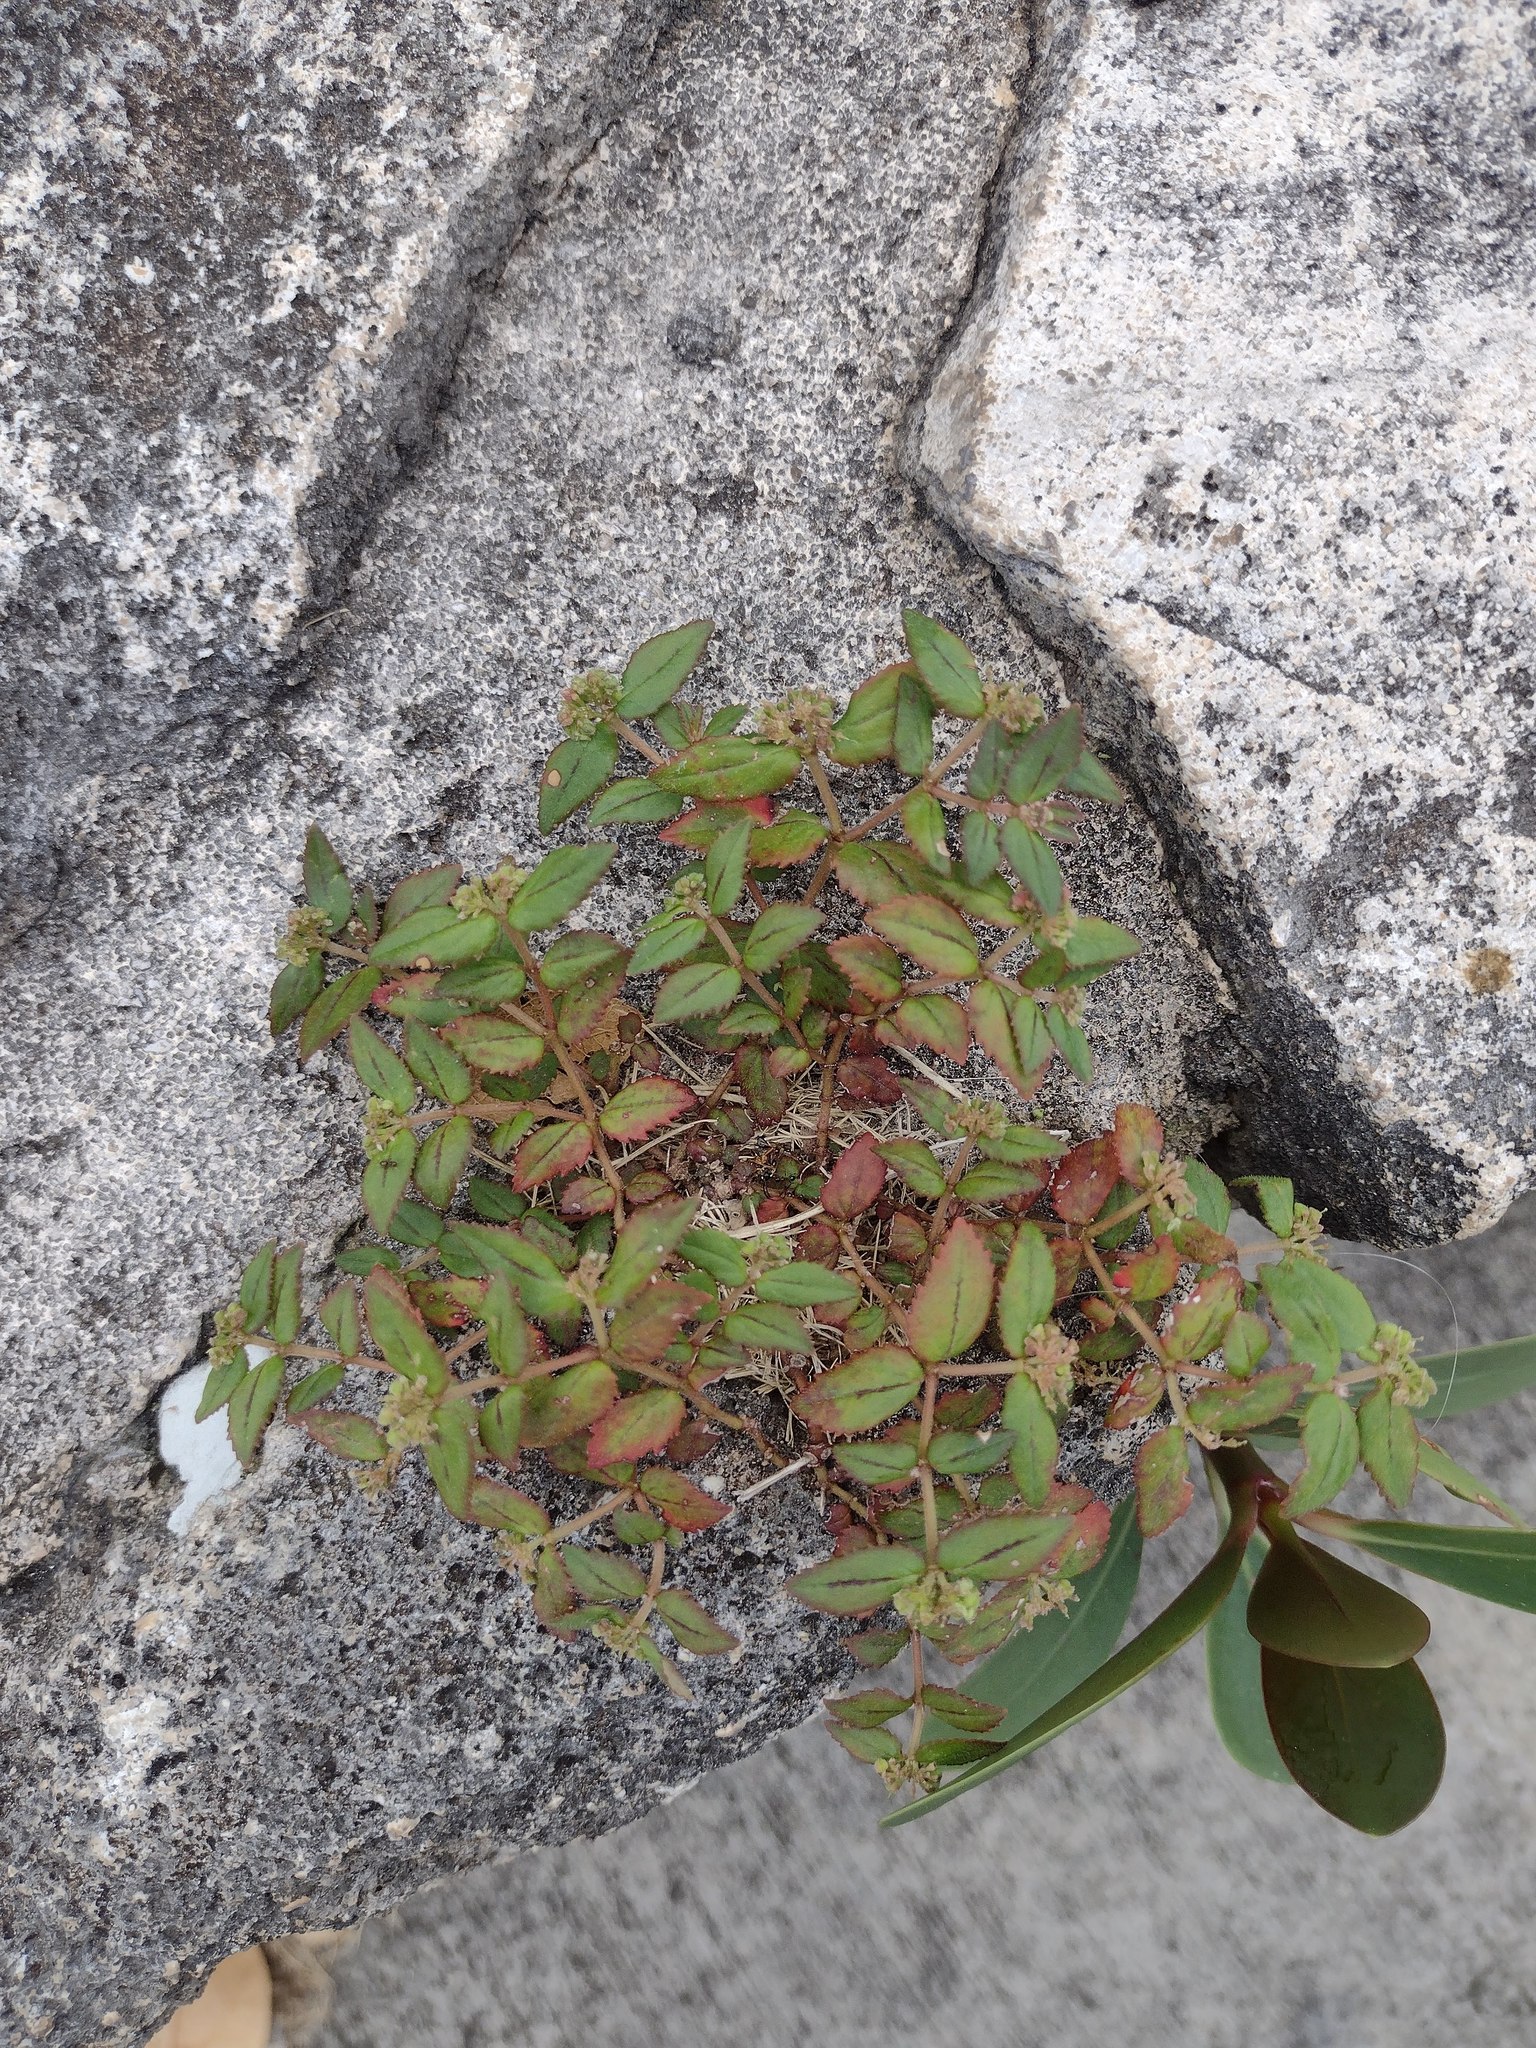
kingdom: Plantae
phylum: Tracheophyta
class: Magnoliopsida
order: Malpighiales
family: Euphorbiaceae
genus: Euphorbia
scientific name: Euphorbia ophthalmica
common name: Florida hammock sandmat
